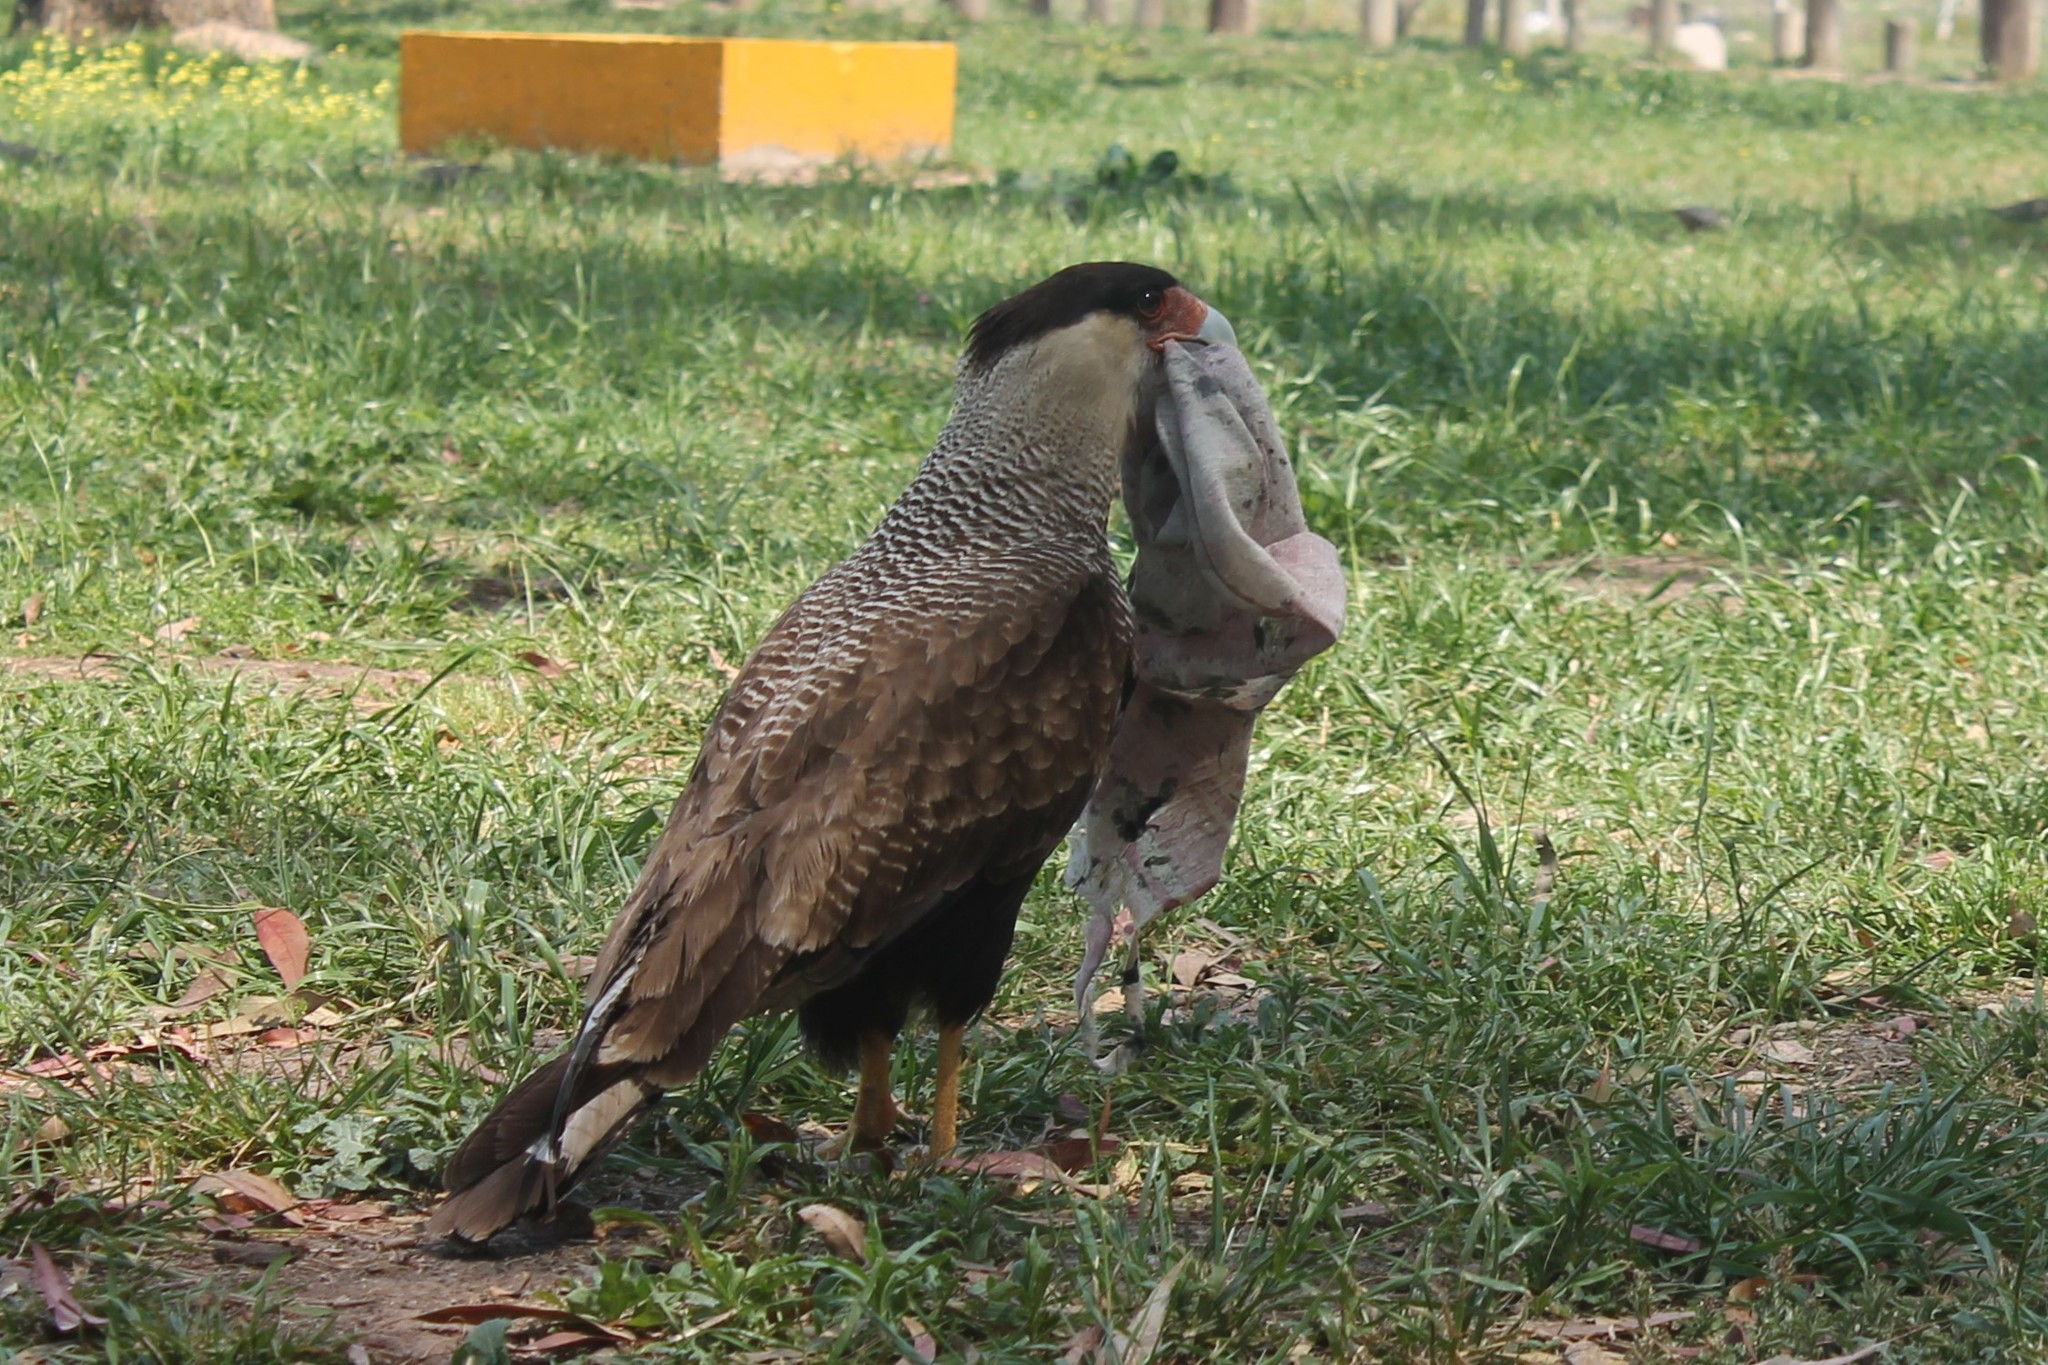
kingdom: Animalia
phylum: Chordata
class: Aves
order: Falconiformes
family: Falconidae
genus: Caracara
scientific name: Caracara plancus
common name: Southern caracara
